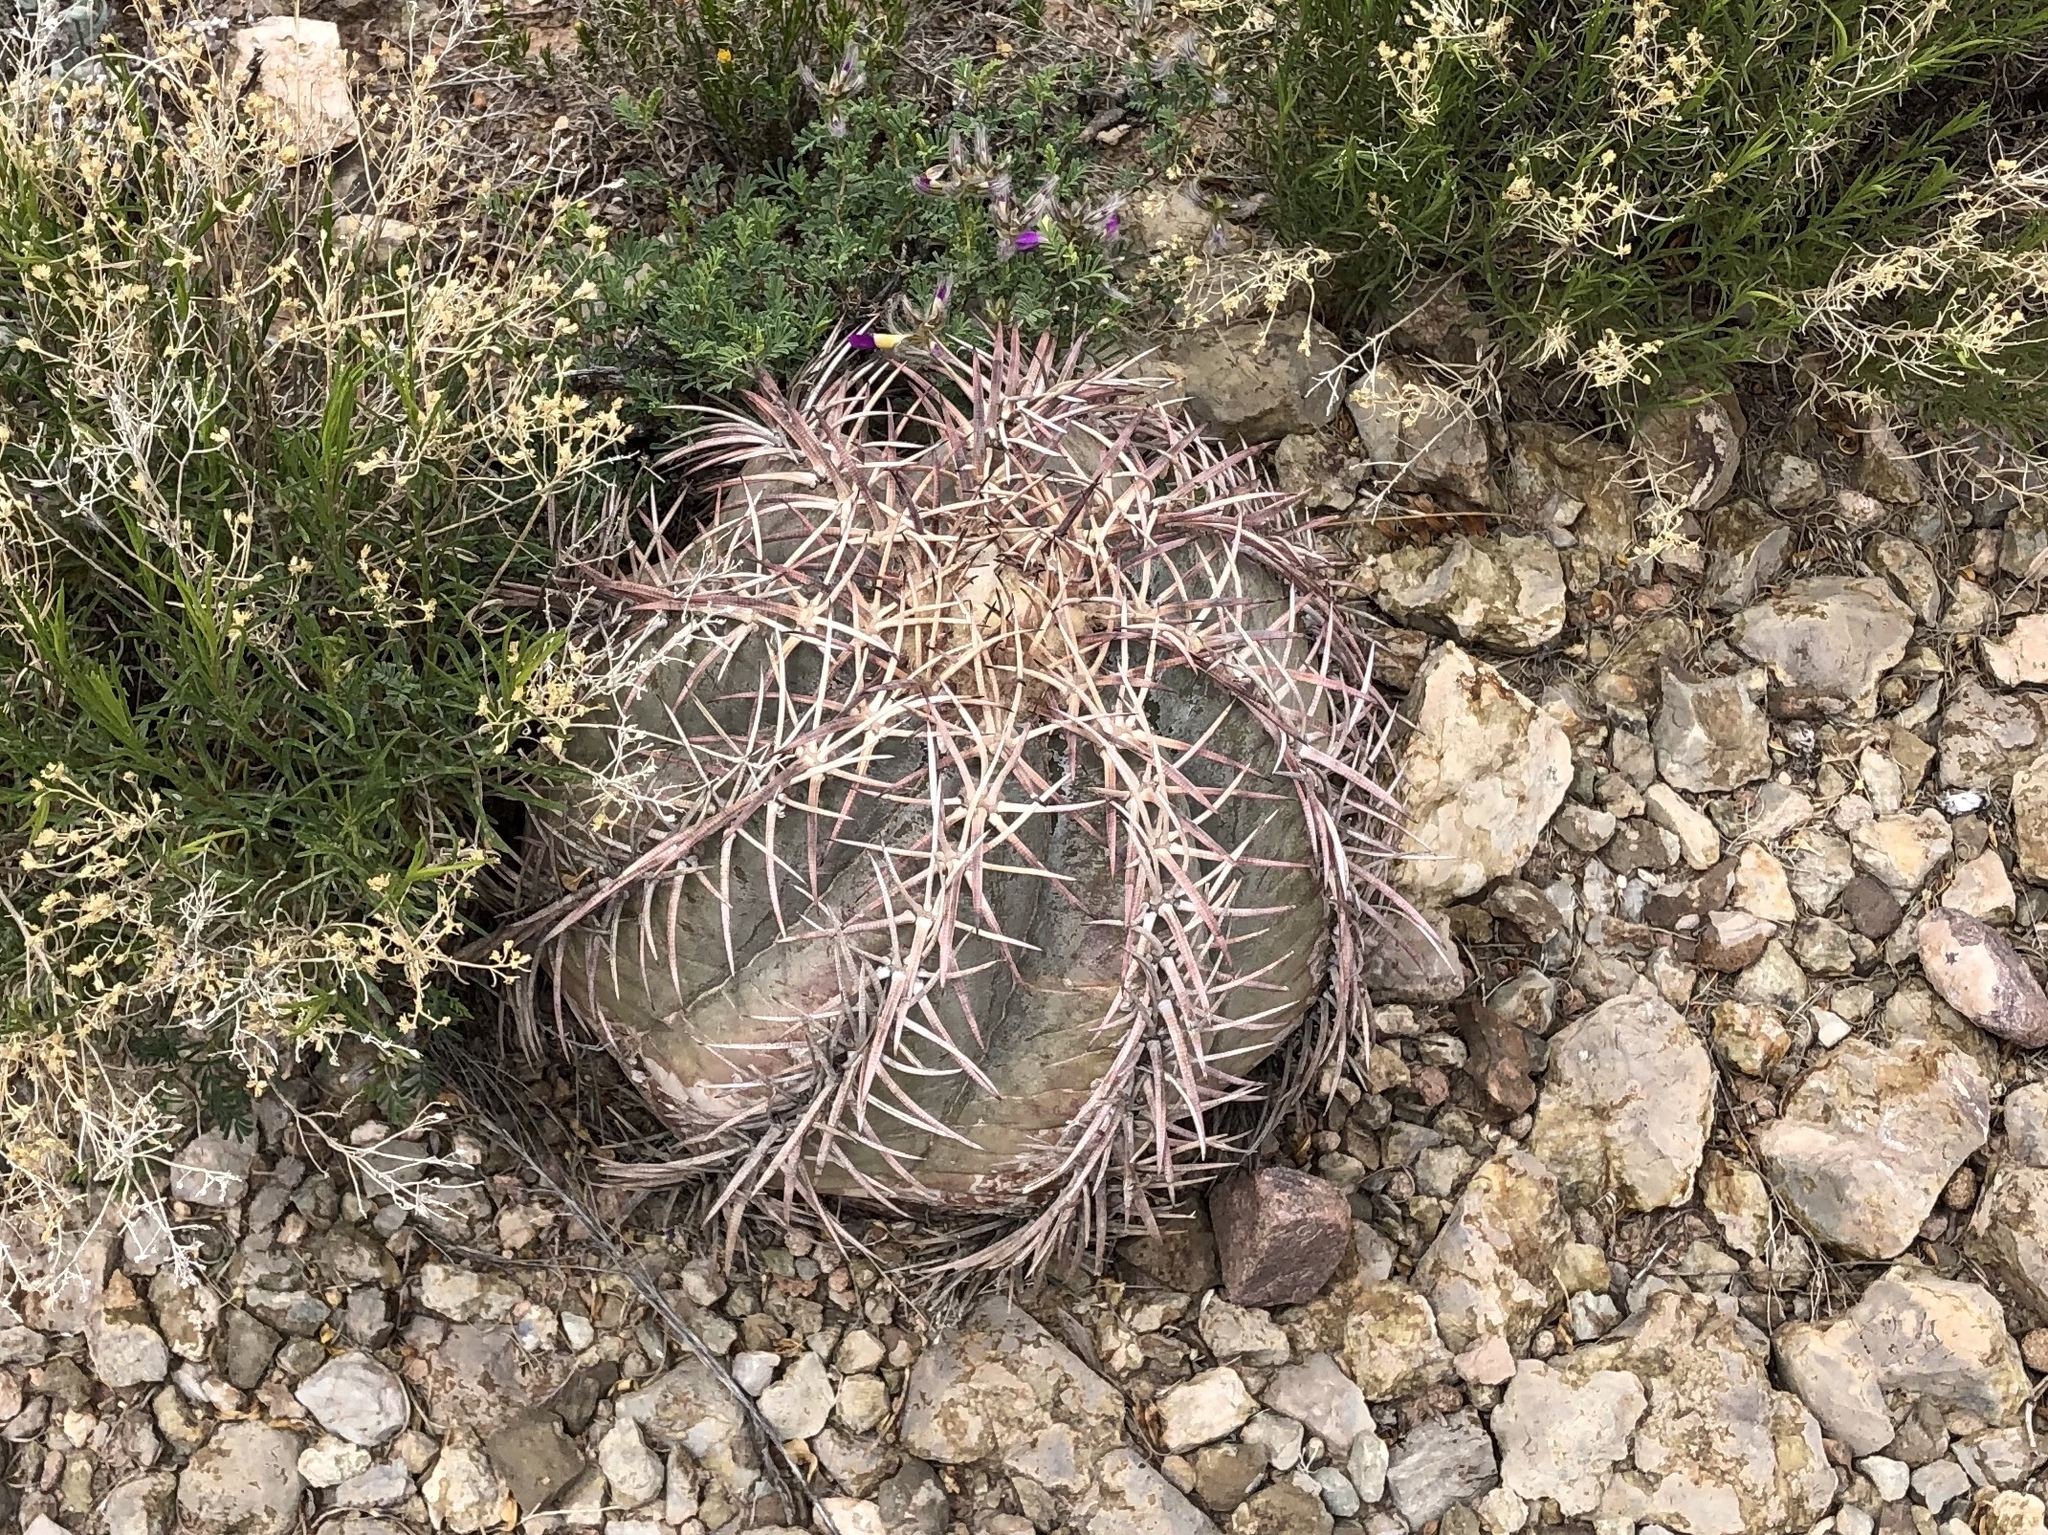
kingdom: Plantae
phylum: Tracheophyta
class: Magnoliopsida
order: Caryophyllales
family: Cactaceae
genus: Echinocactus
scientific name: Echinocactus horizonthalonius
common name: Devilshead
